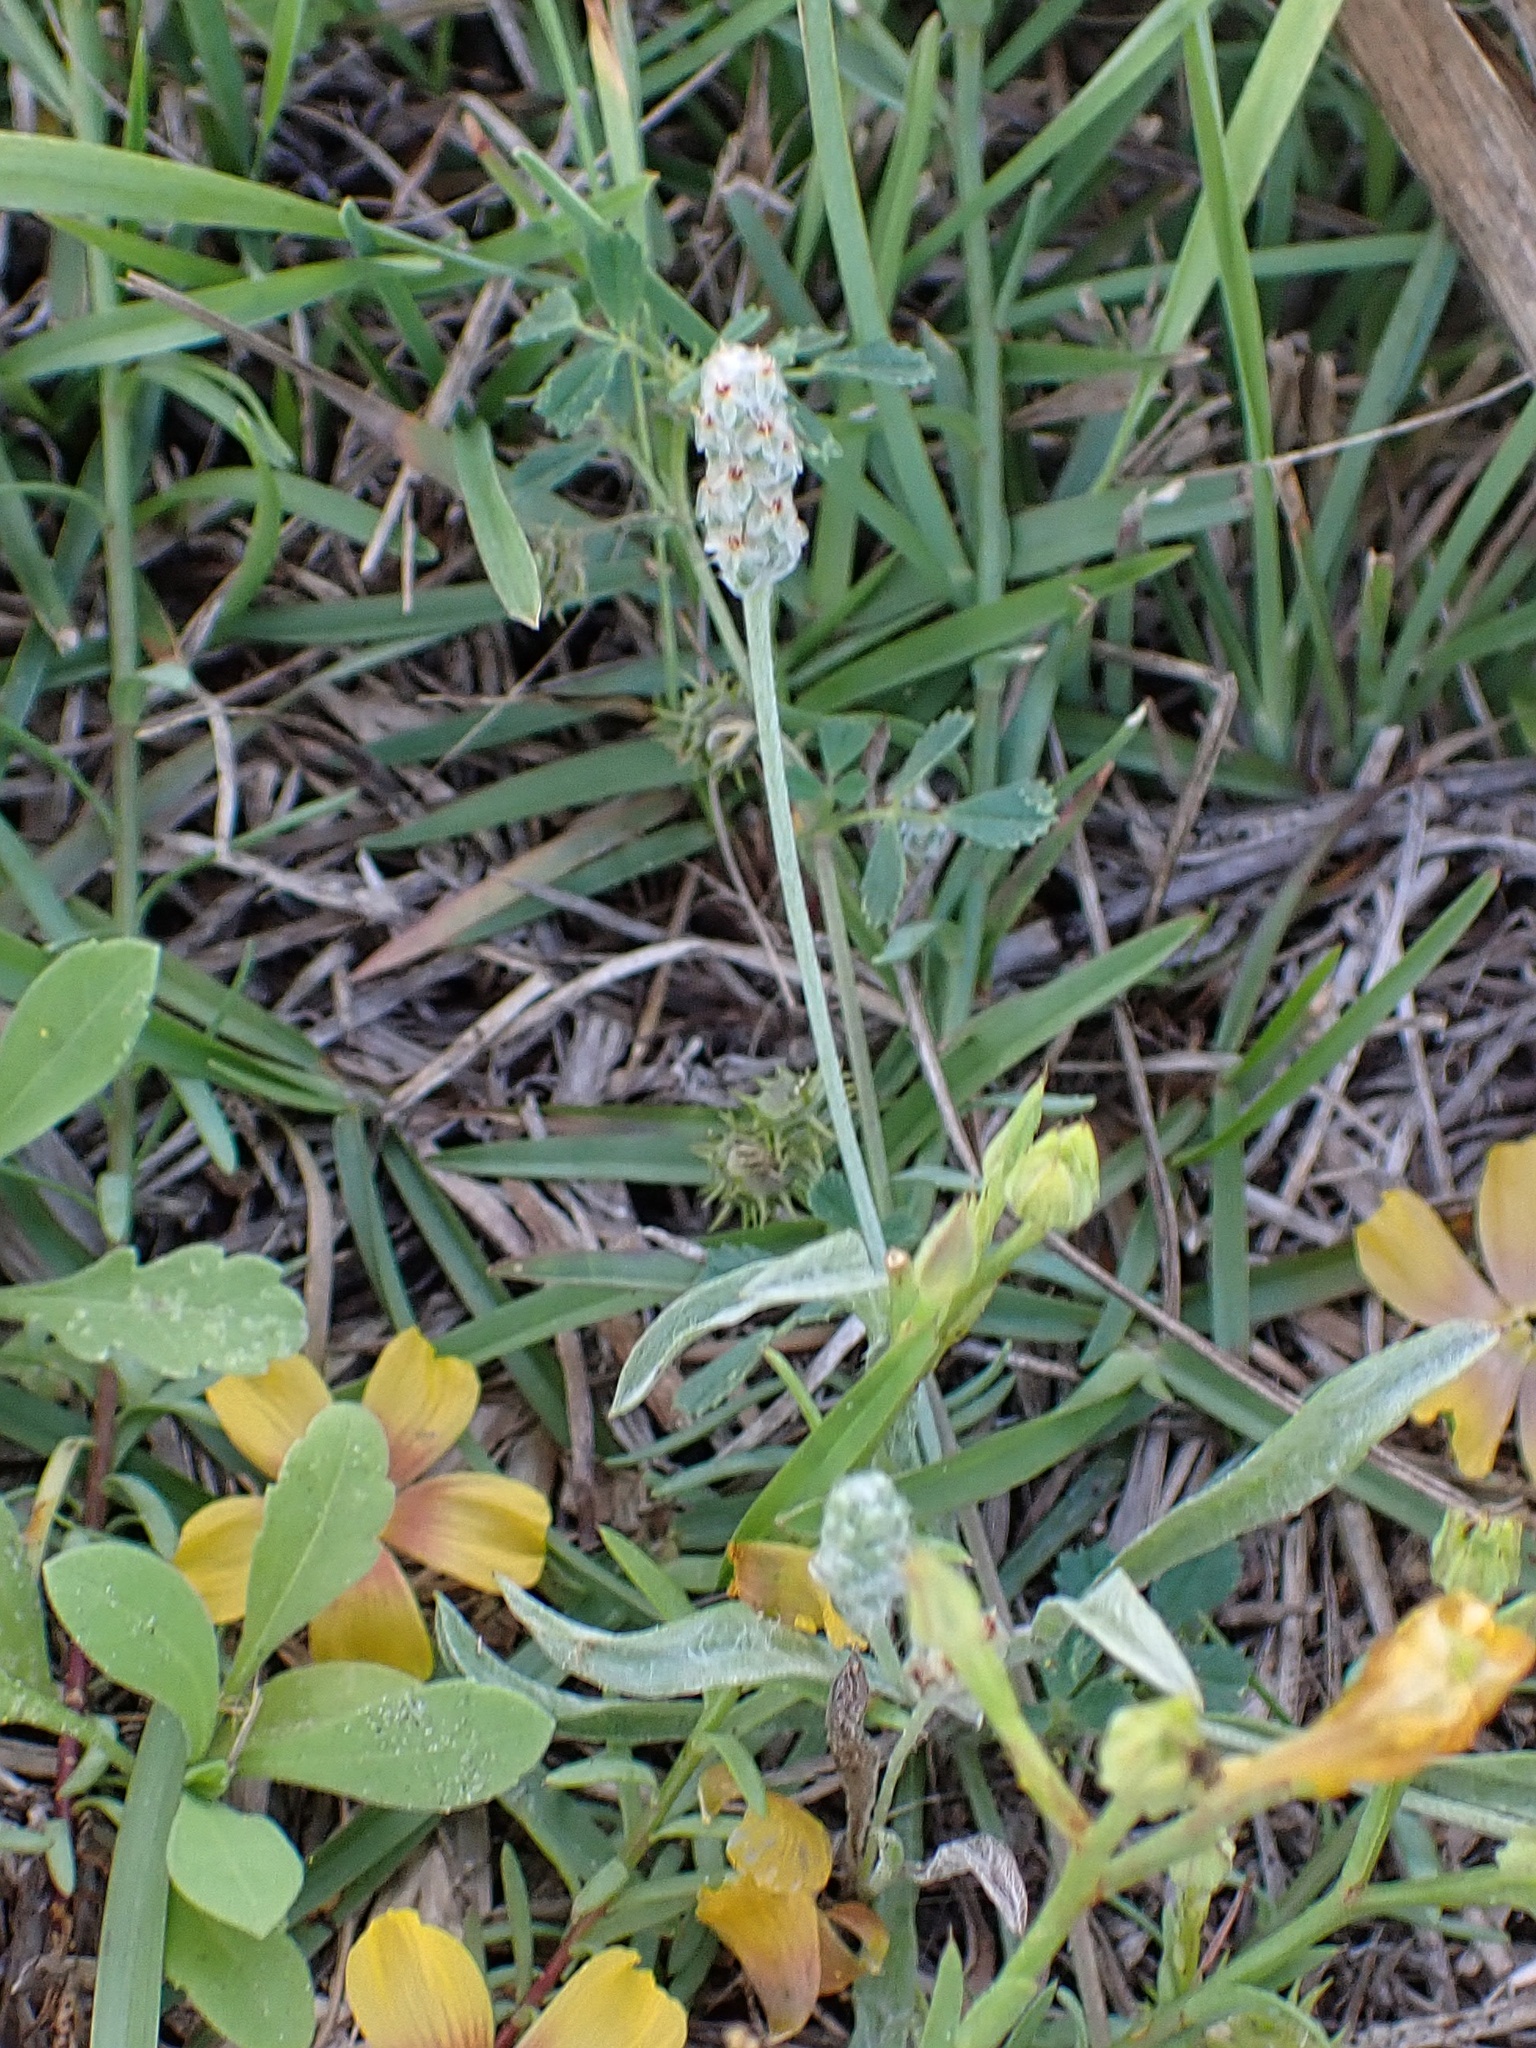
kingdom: Plantae
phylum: Tracheophyta
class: Magnoliopsida
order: Lamiales
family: Plantaginaceae
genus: Plantago
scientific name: Plantago hookeriana
